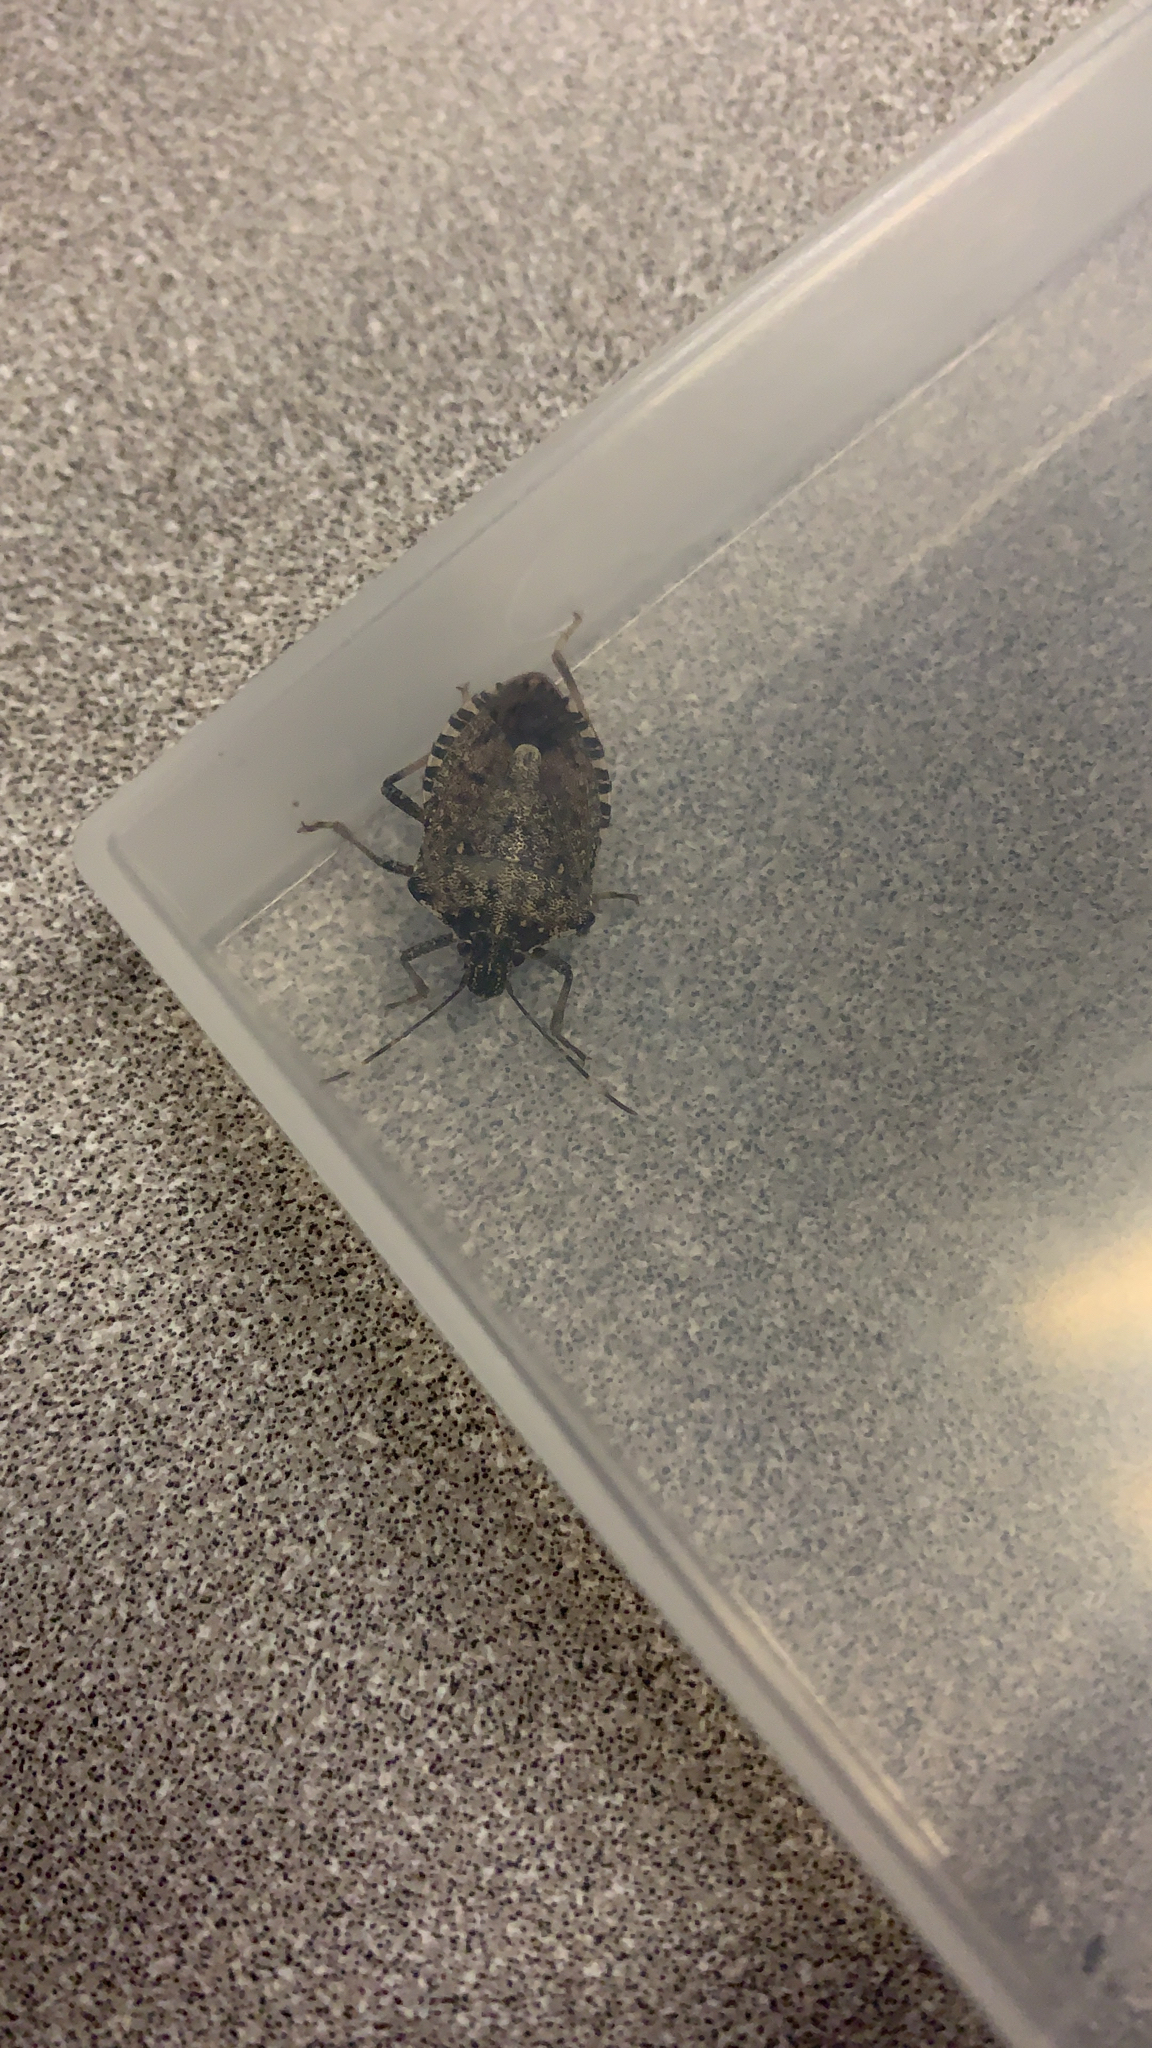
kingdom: Animalia
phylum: Arthropoda
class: Insecta
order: Hemiptera
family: Pentatomidae
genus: Halyomorpha
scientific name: Halyomorpha halys
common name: Brown marmorated stink bug
